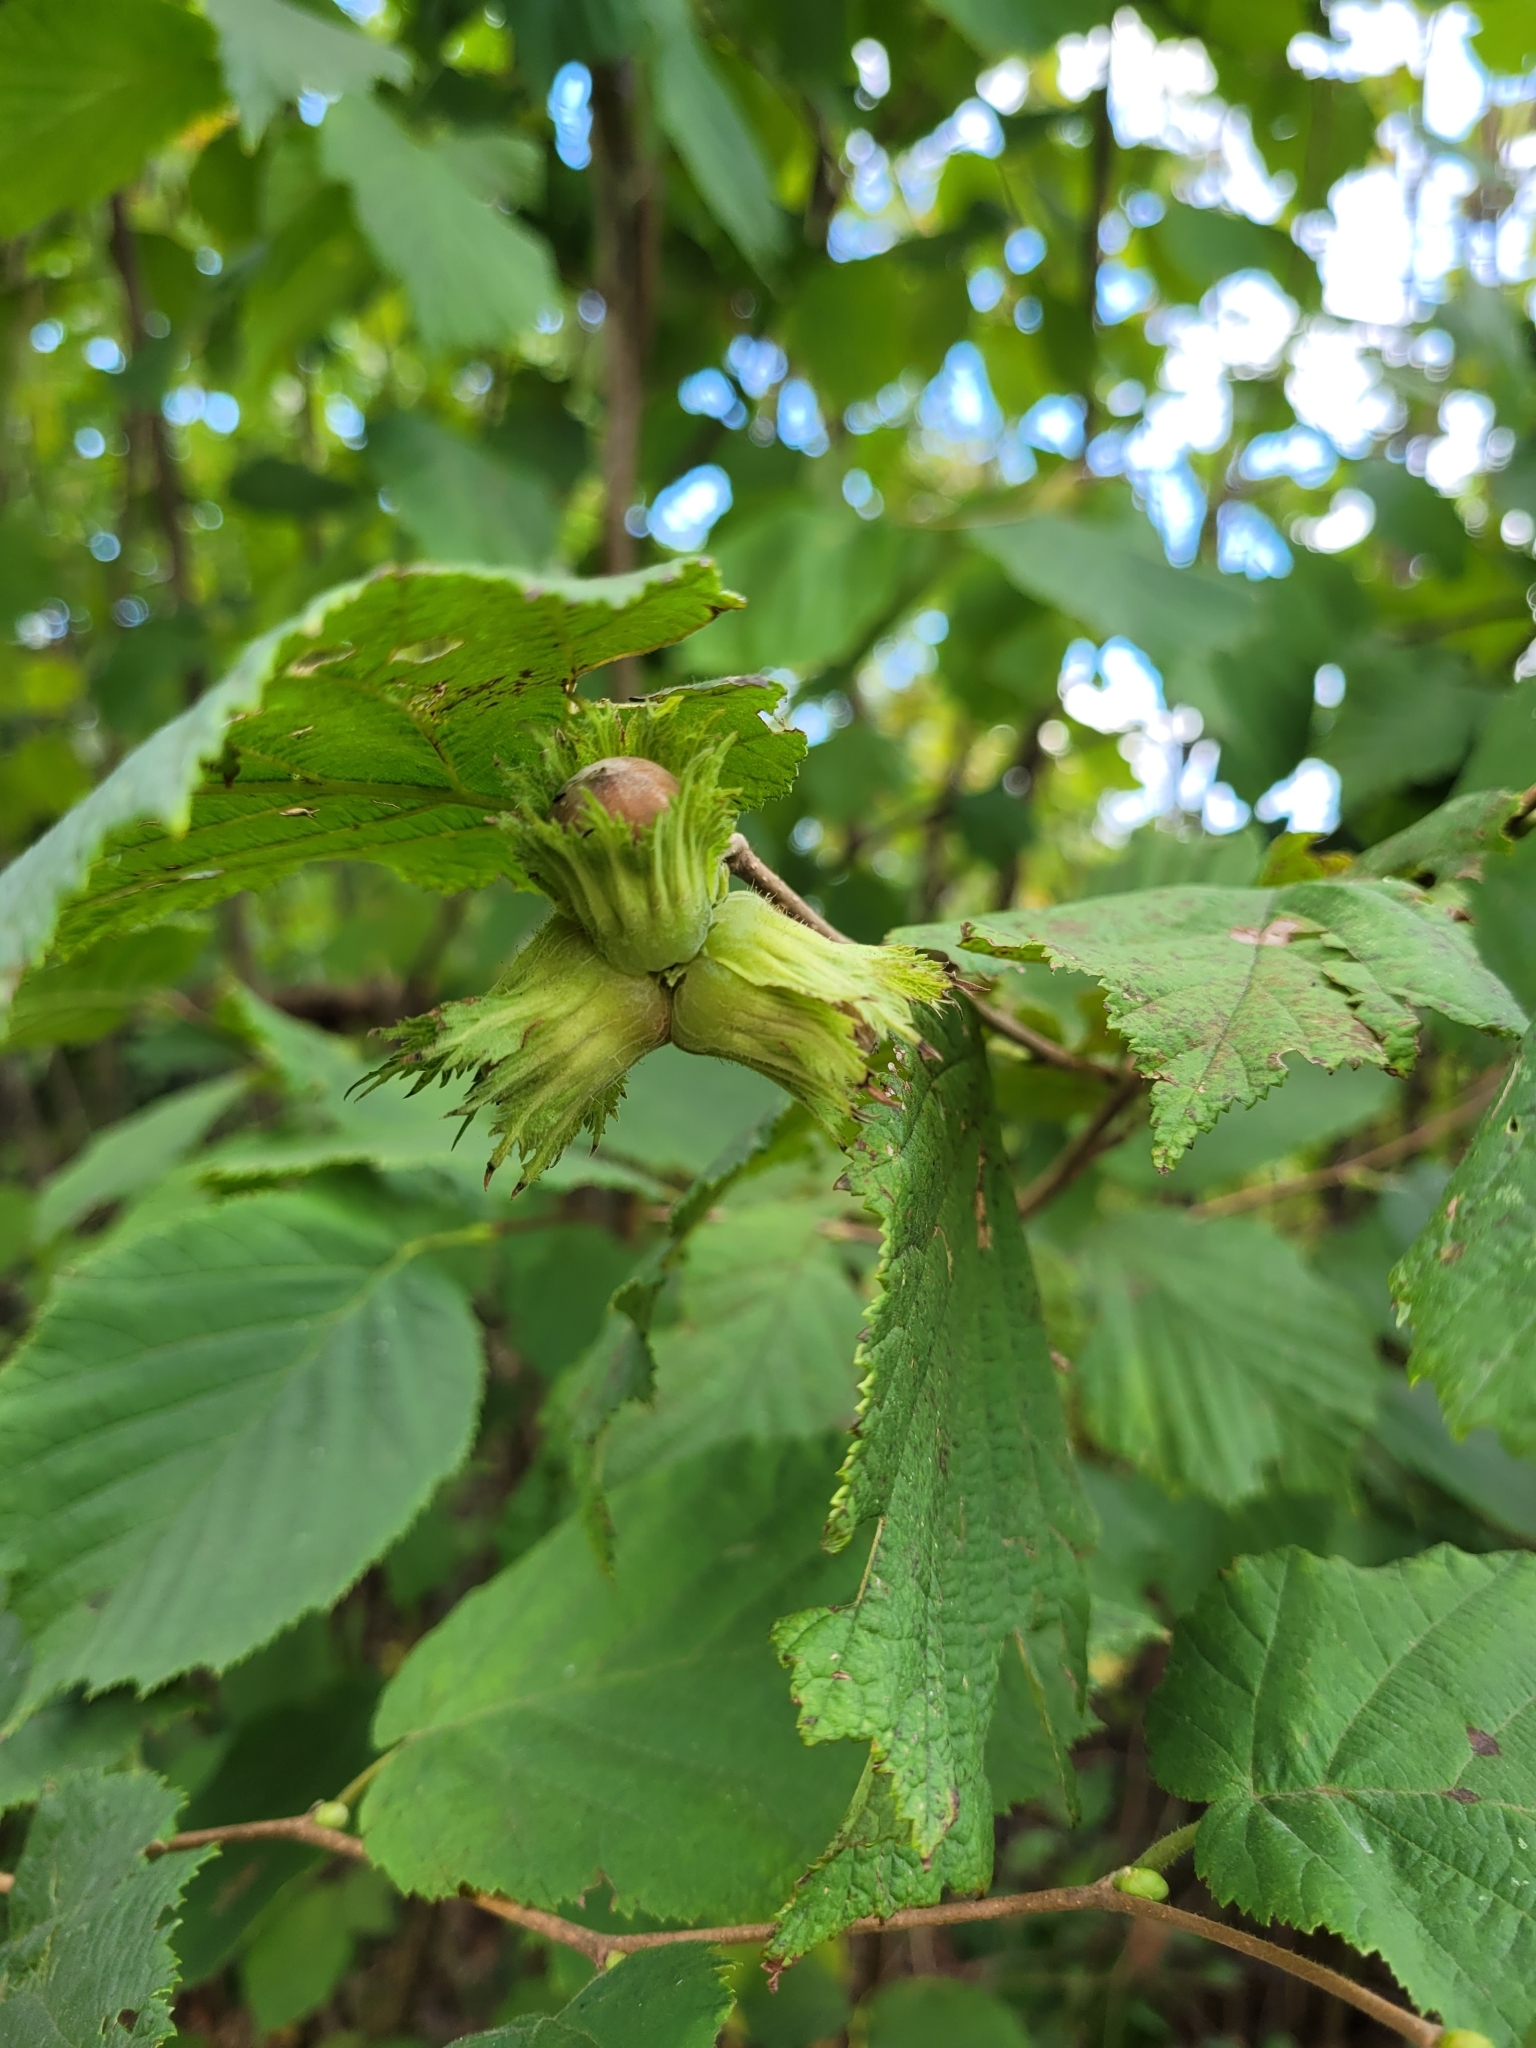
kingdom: Plantae
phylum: Tracheophyta
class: Magnoliopsida
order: Fagales
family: Betulaceae
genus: Corylus
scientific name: Corylus avellana
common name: European hazel
